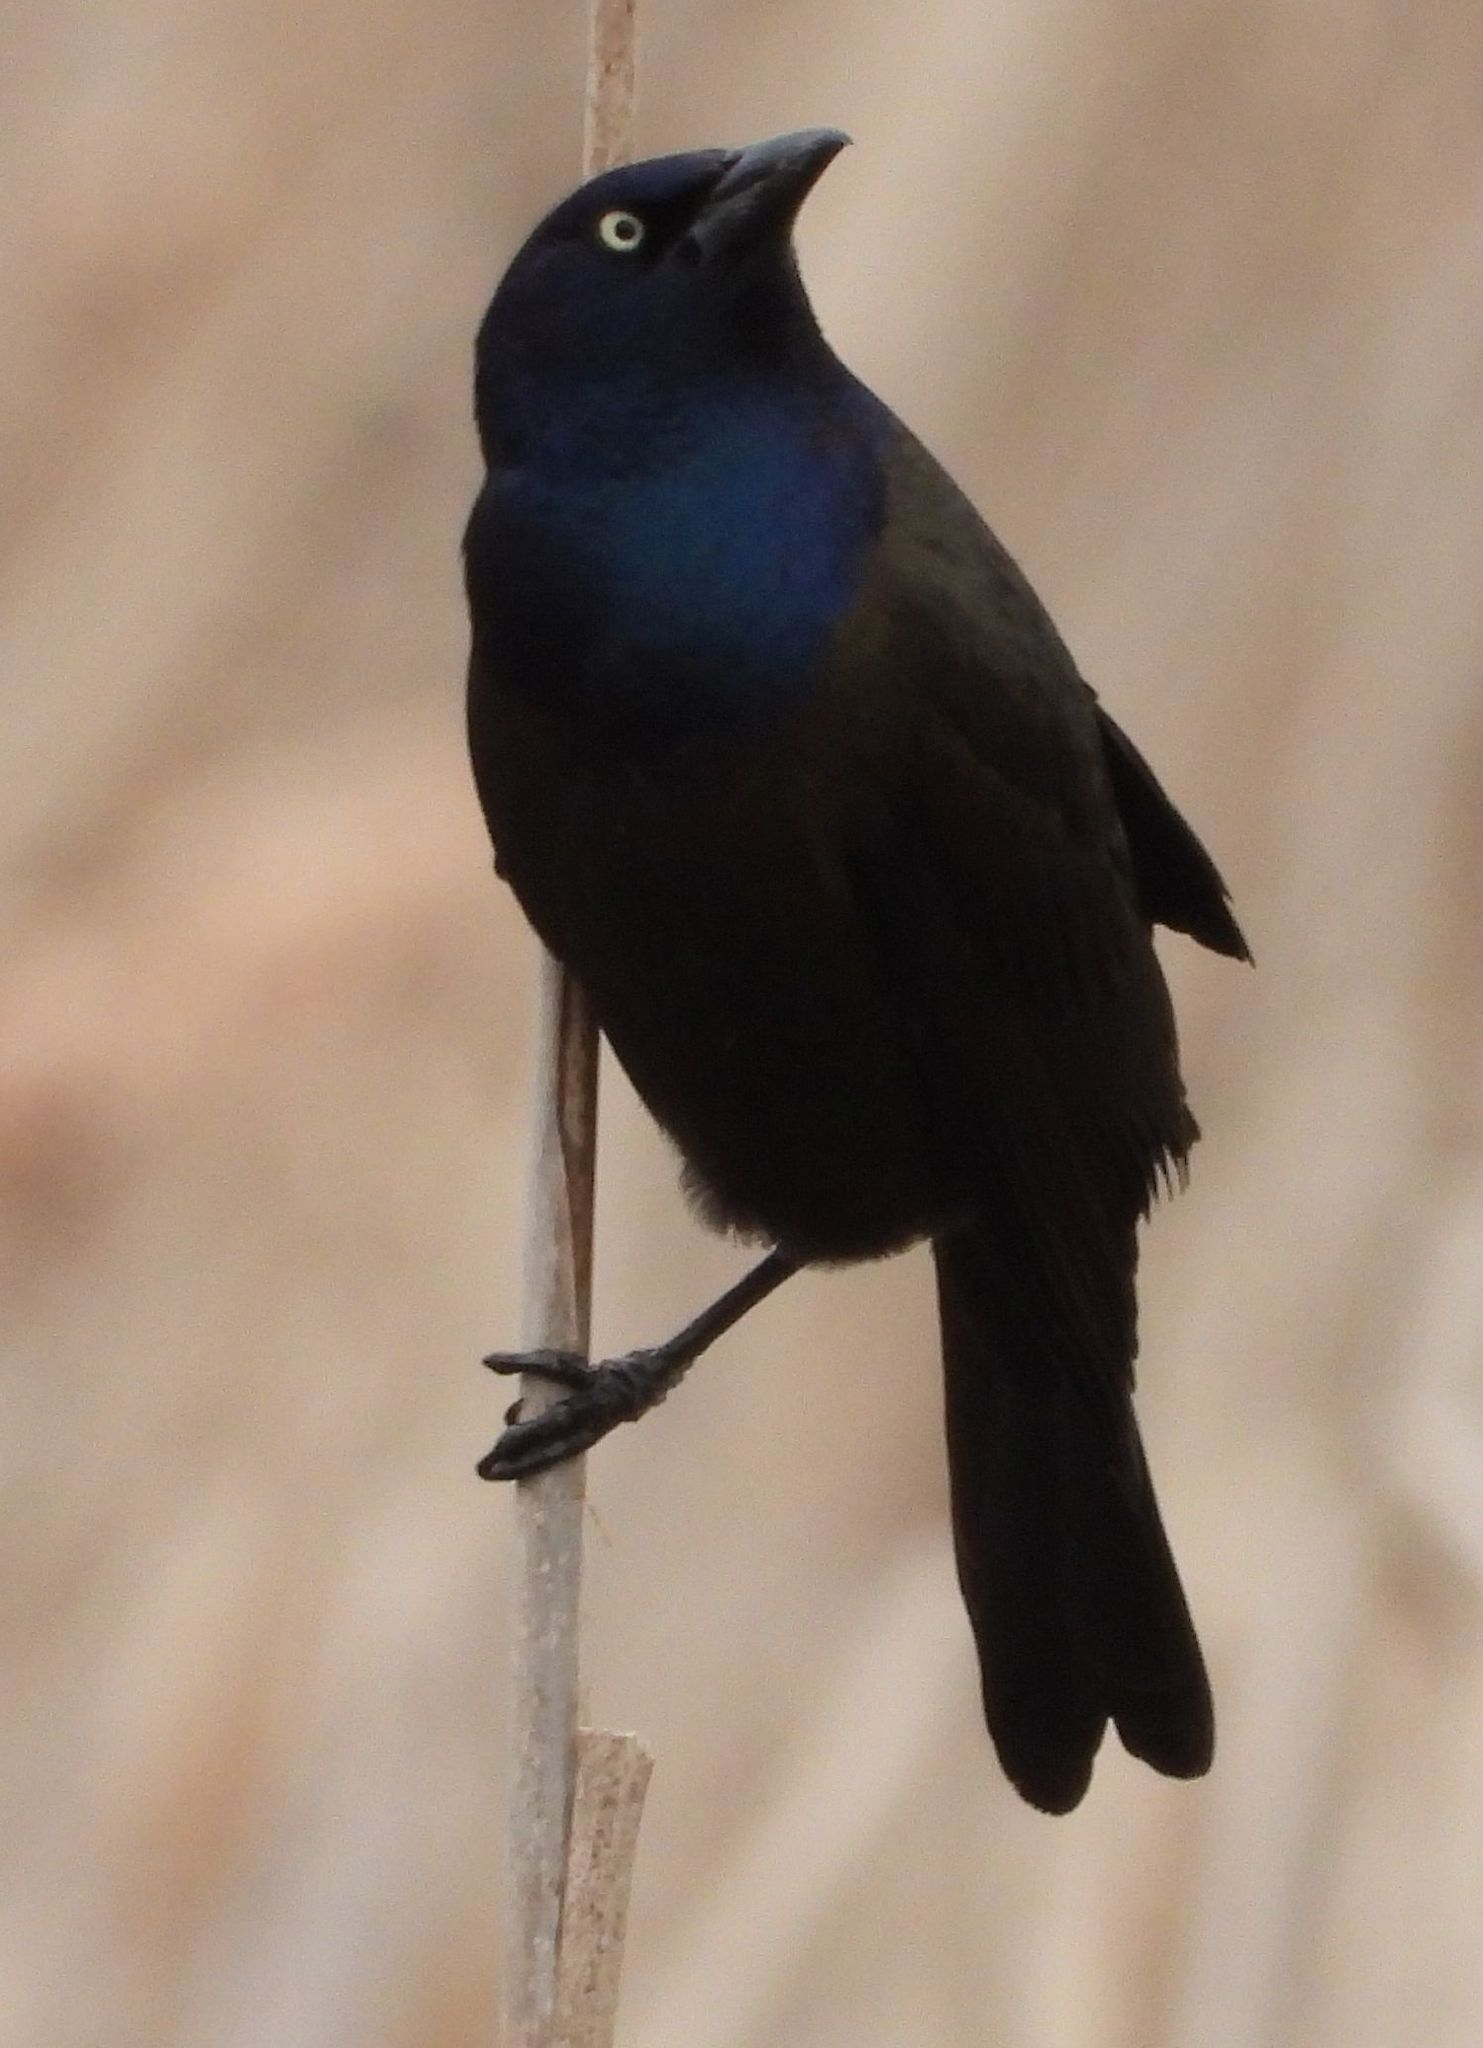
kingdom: Animalia
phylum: Chordata
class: Aves
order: Passeriformes
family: Icteridae
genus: Quiscalus
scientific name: Quiscalus quiscula
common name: Common grackle
